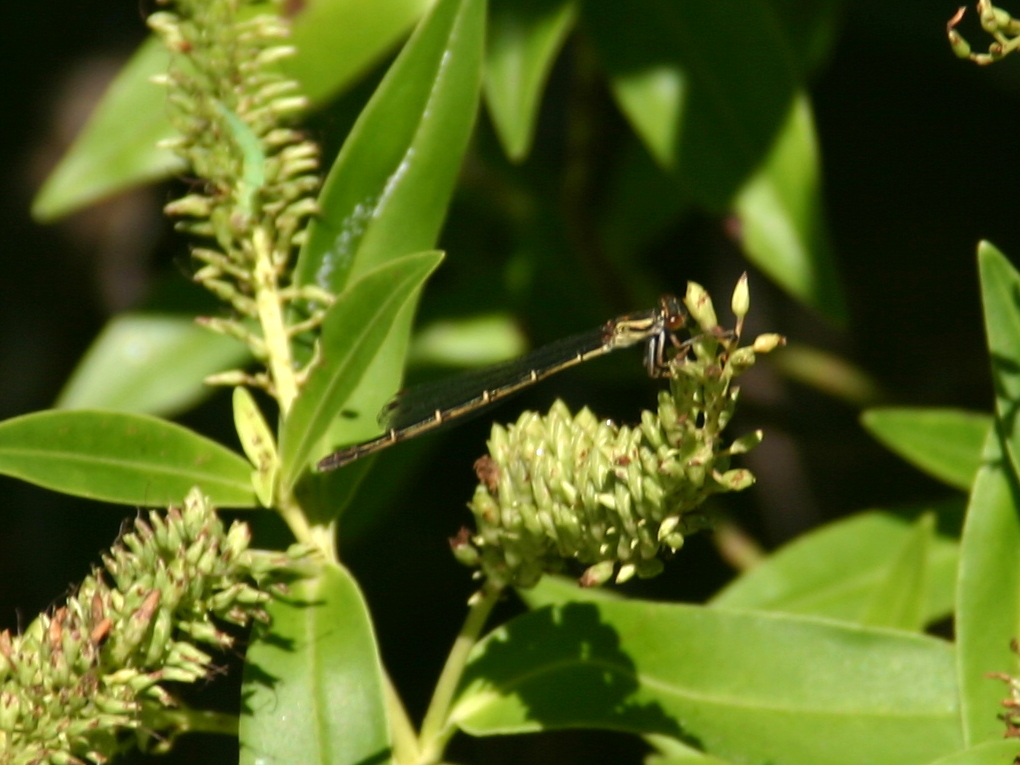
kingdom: Animalia
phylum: Arthropoda
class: Insecta
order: Odonata
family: Coenagrionidae
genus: Xanthocnemis
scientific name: Xanthocnemis zealandica
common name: Common redcoat damselfly
